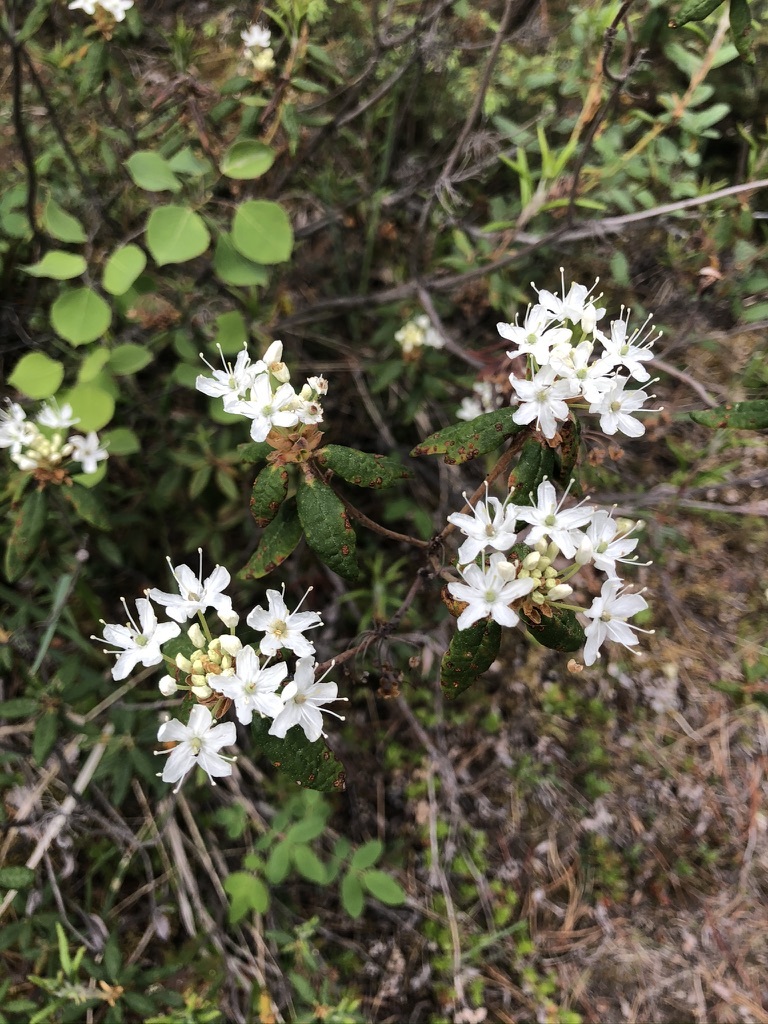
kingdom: Plantae
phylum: Tracheophyta
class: Magnoliopsida
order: Ericales
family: Ericaceae
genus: Rhododendron
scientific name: Rhododendron groenlandicum
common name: Bog labrador tea
